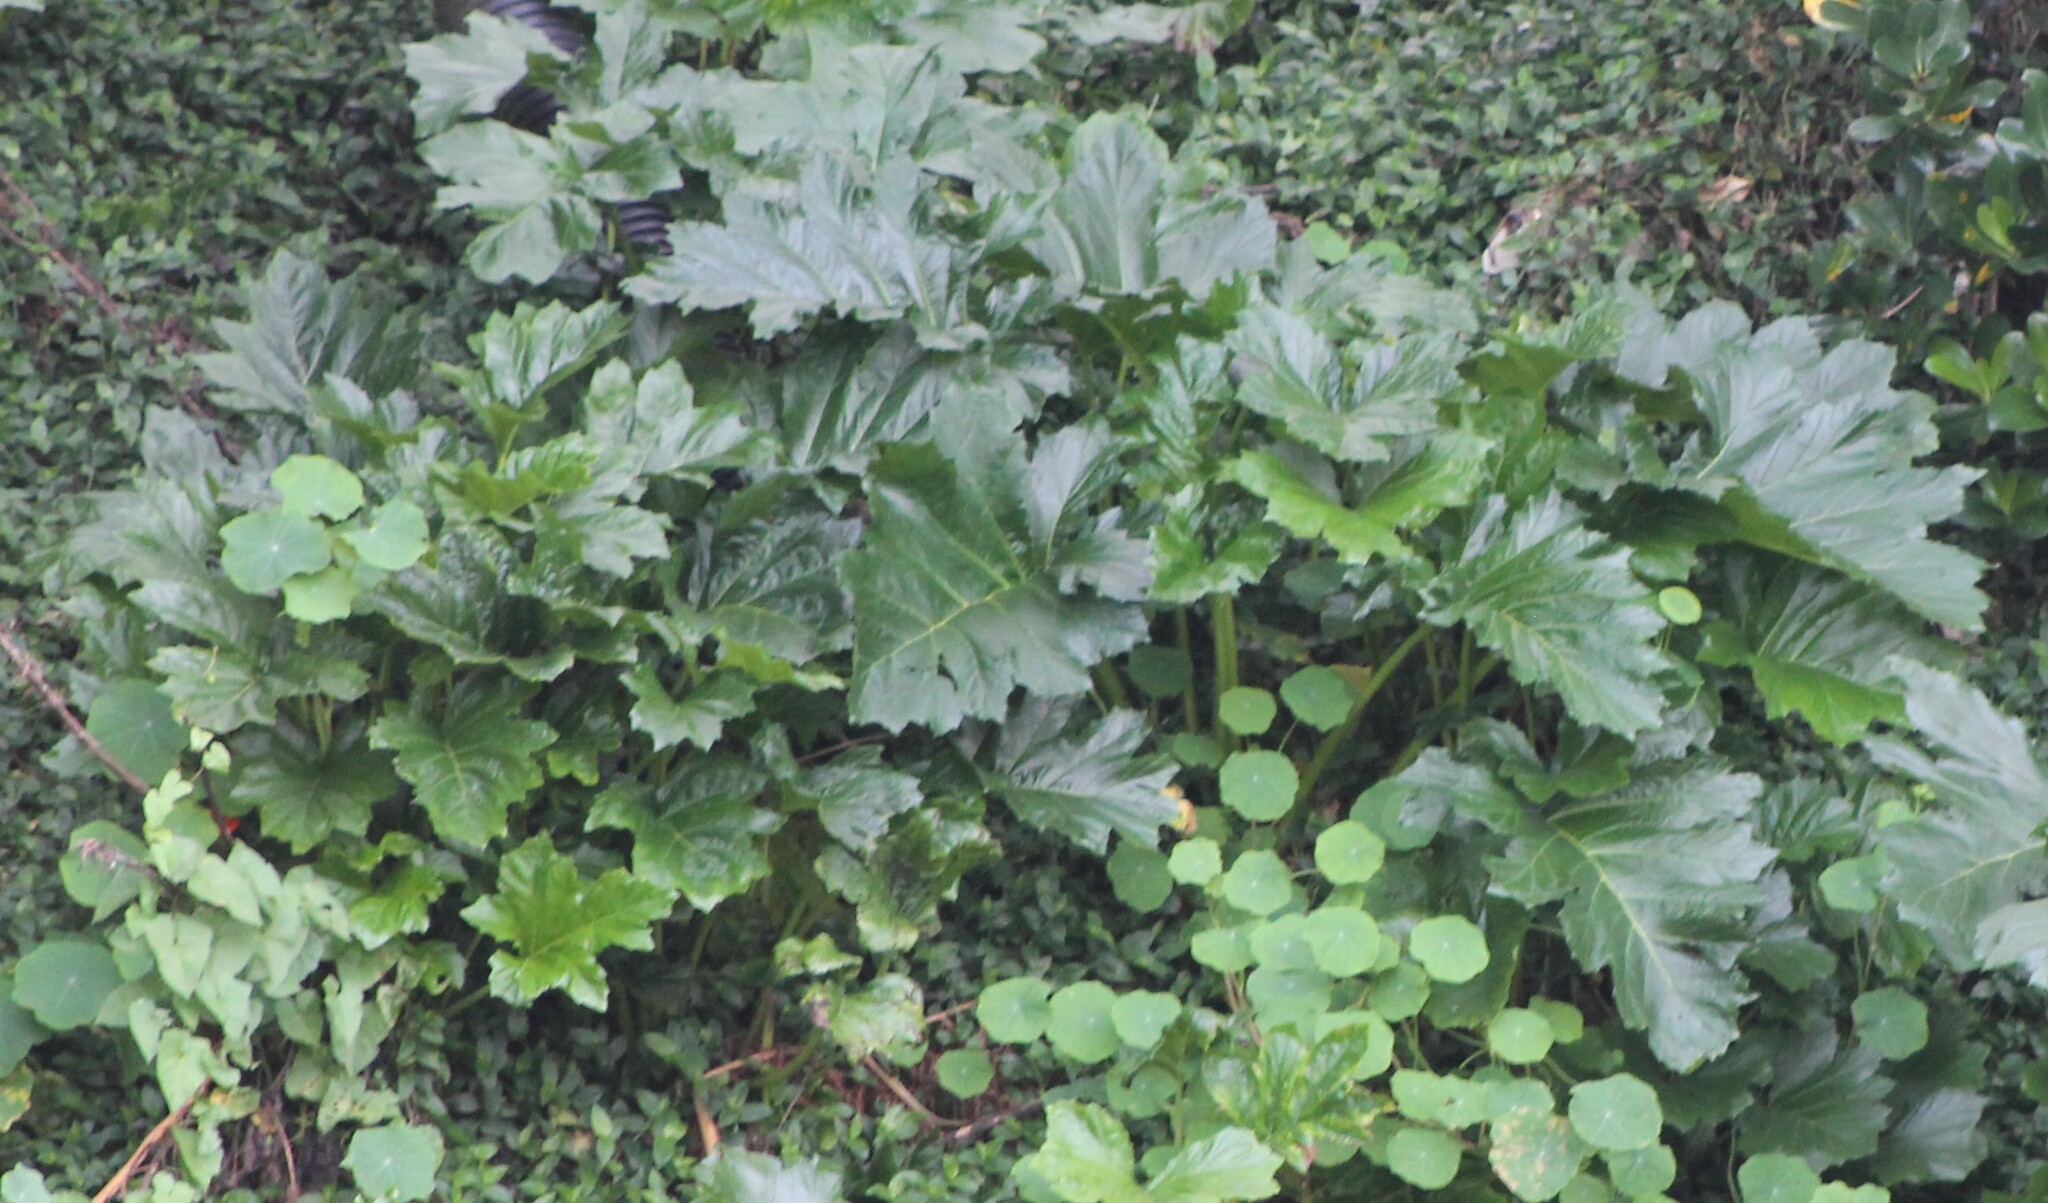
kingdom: Plantae
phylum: Tracheophyta
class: Magnoliopsida
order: Lamiales
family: Acanthaceae
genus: Acanthus
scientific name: Acanthus mollis
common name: Bear's-breech
